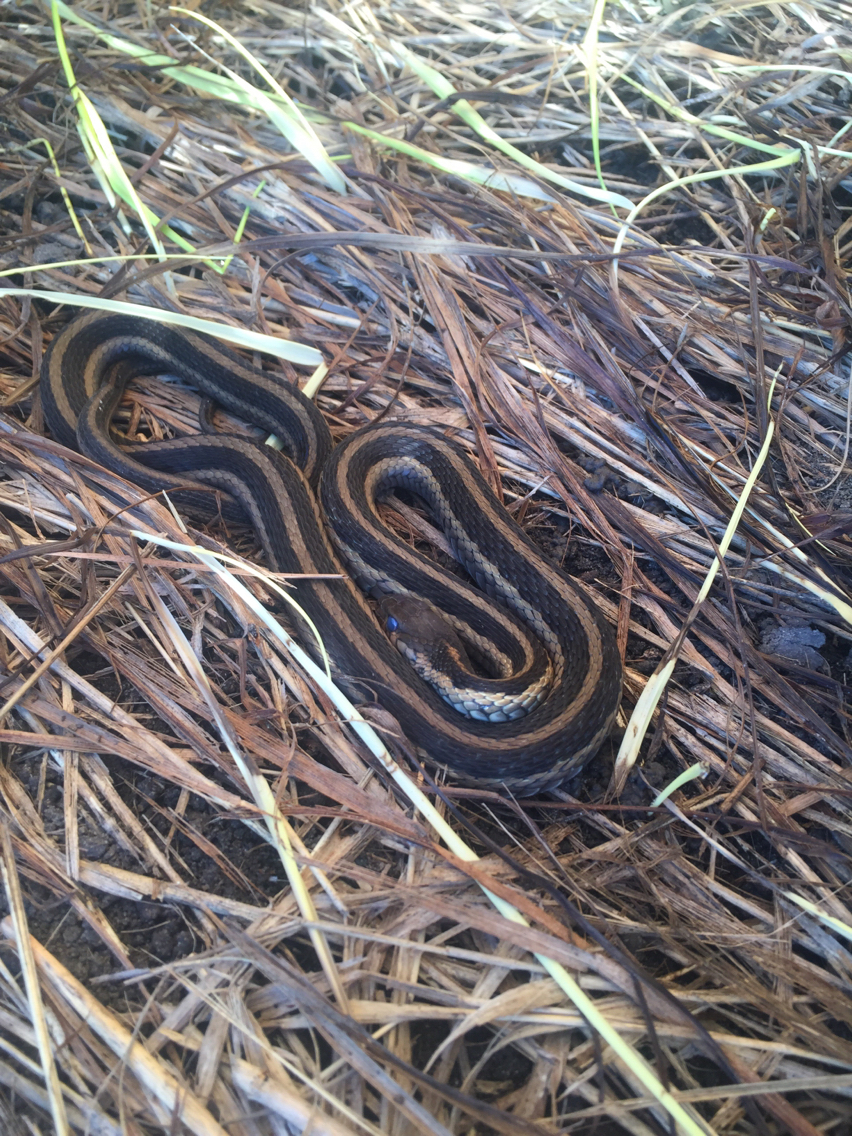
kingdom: Animalia
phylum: Chordata
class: Squamata
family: Colubridae
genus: Thamnophis
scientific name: Thamnophis sirtalis
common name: Common garter snake
